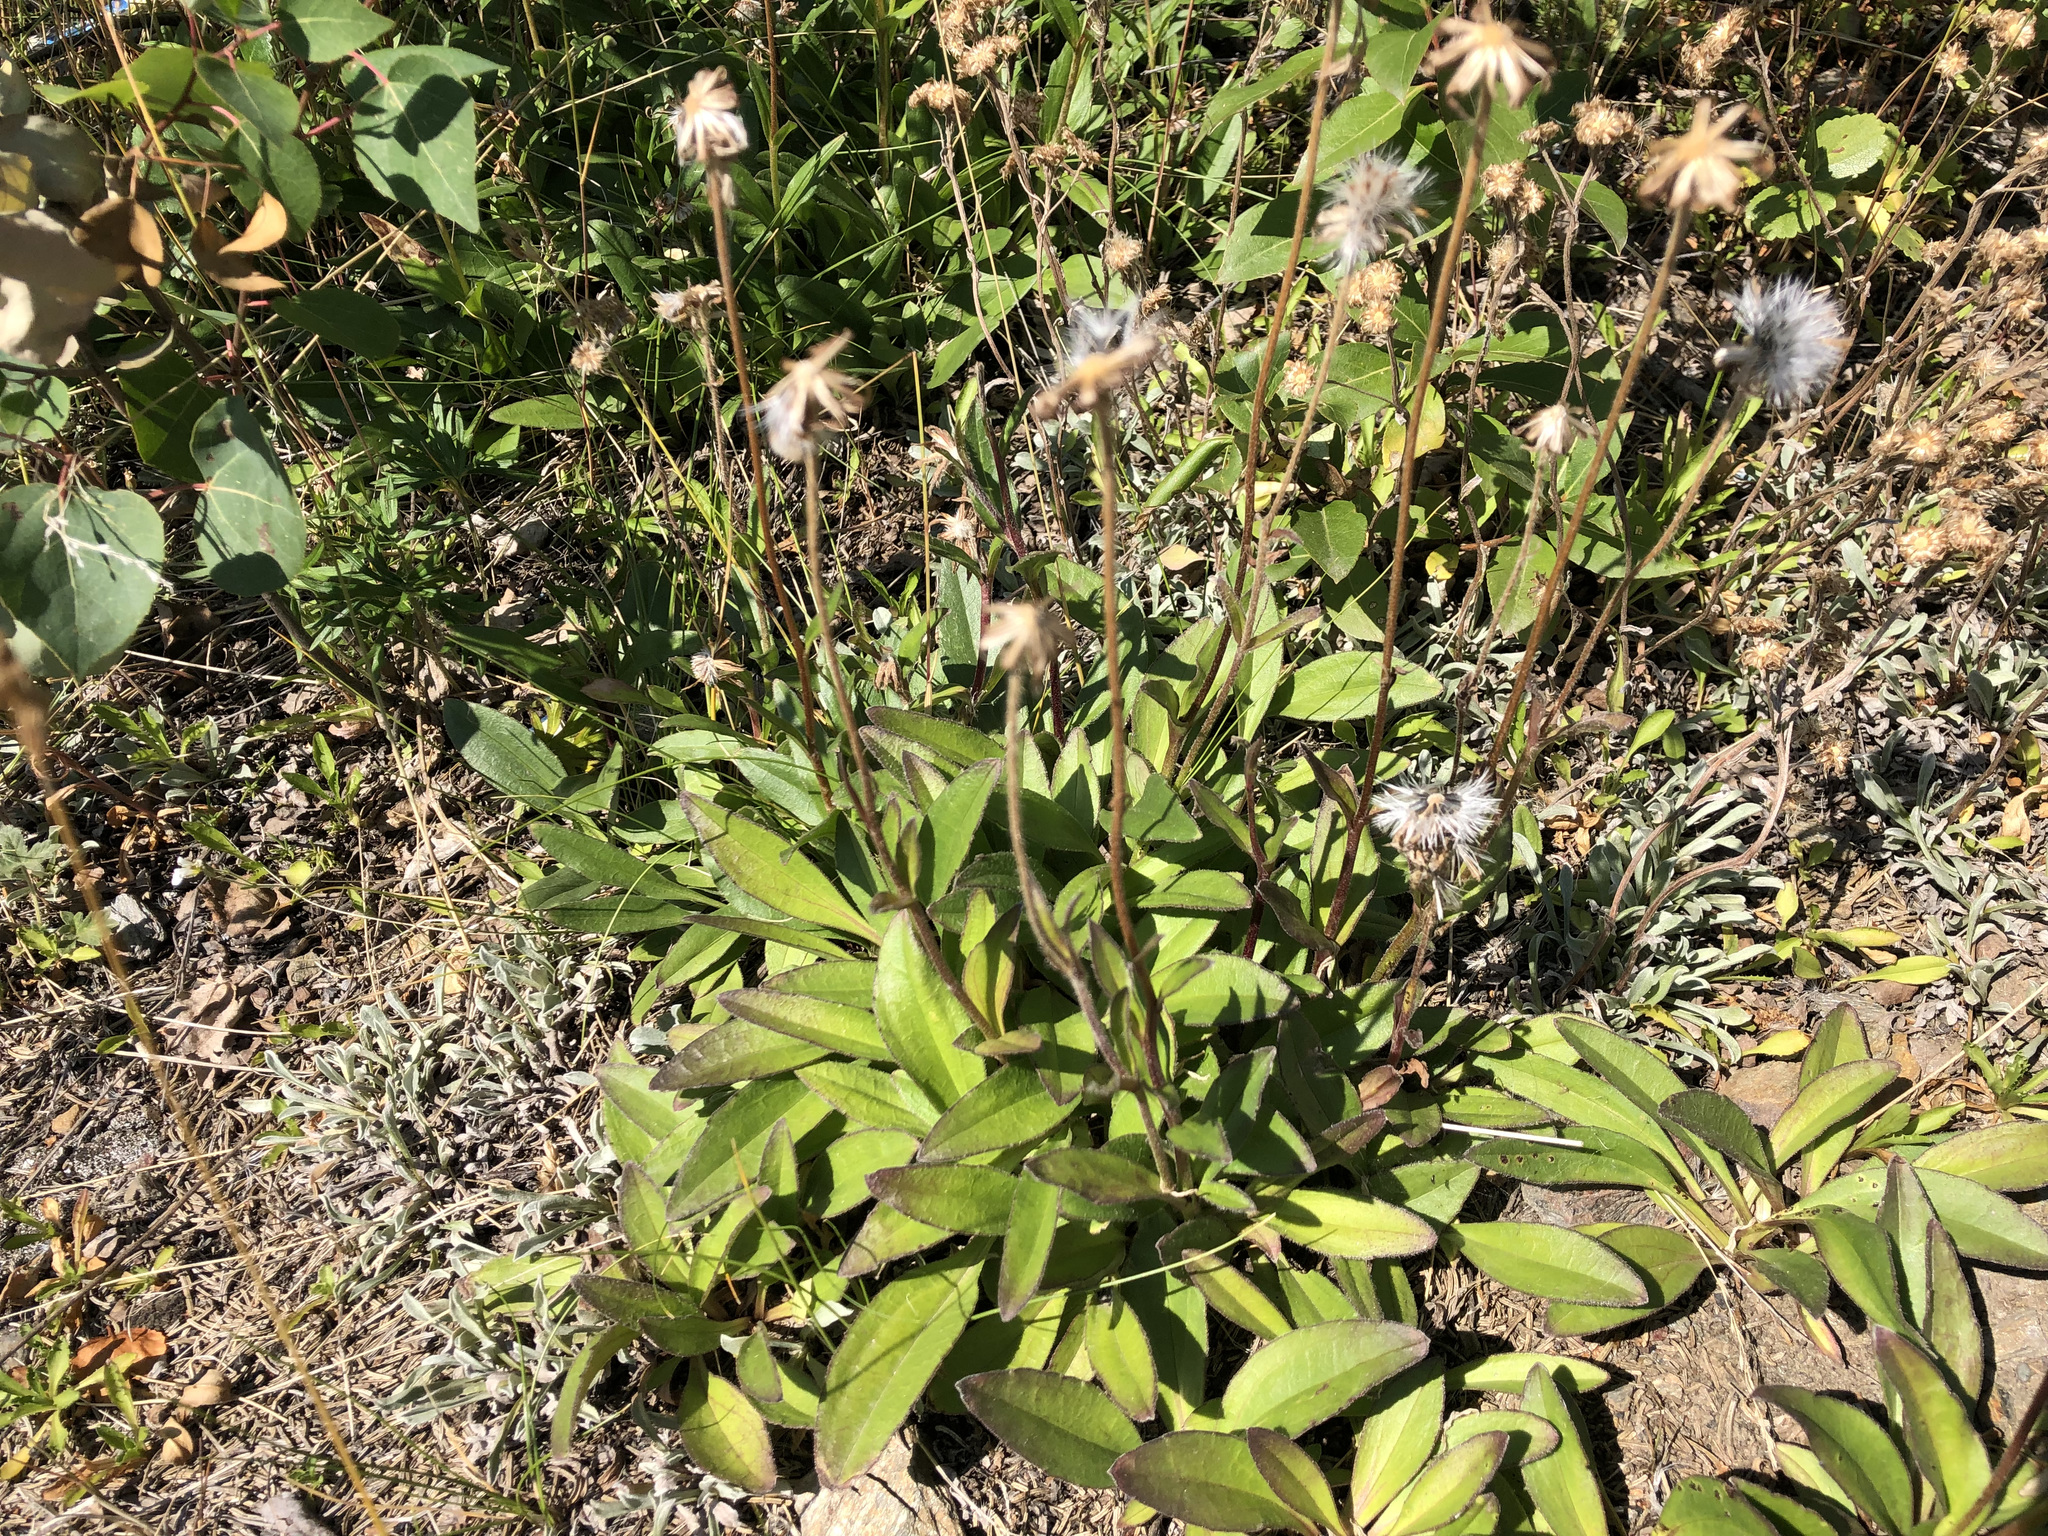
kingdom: Plantae
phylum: Tracheophyta
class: Magnoliopsida
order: Asterales
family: Asteraceae
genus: Arnica
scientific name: Arnica griscomii
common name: Snow arnica
